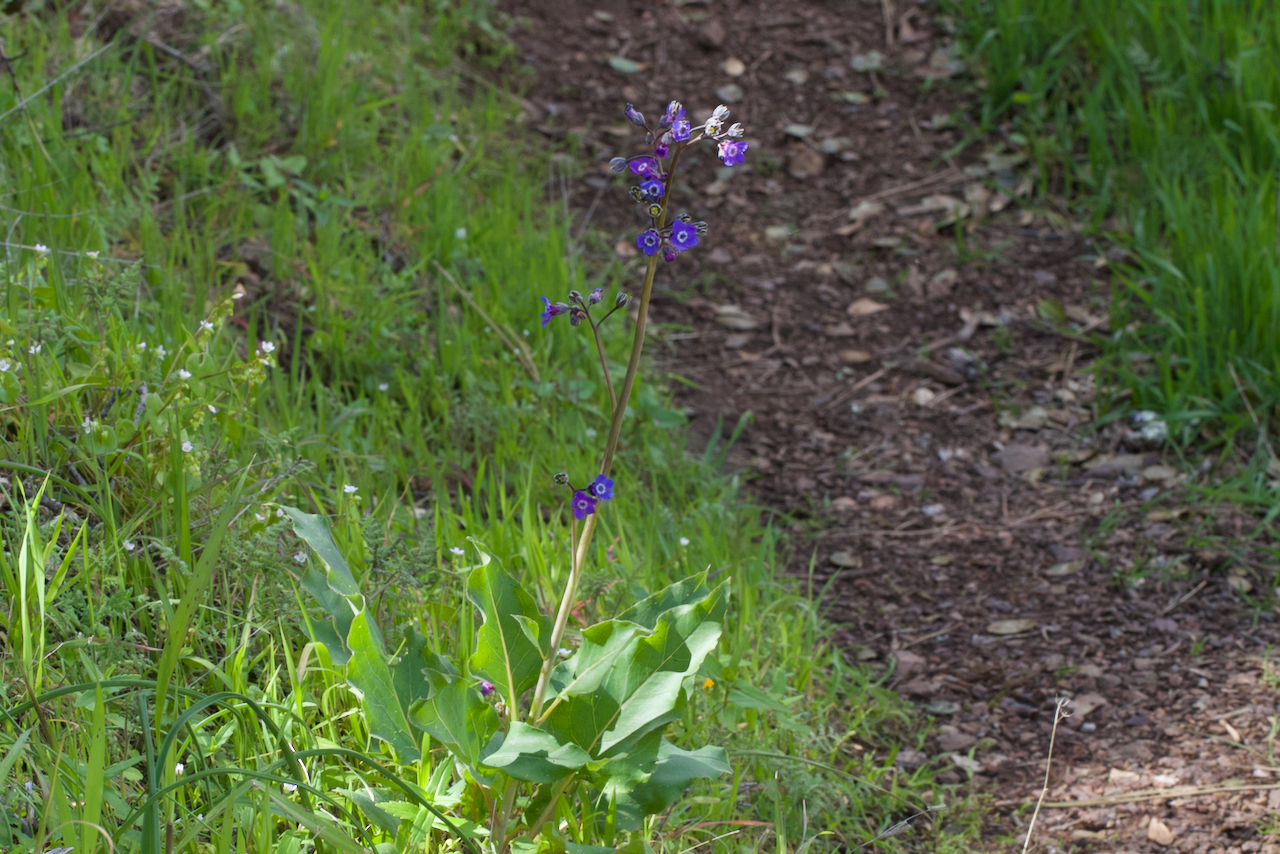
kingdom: Plantae
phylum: Tracheophyta
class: Magnoliopsida
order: Boraginales
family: Boraginaceae
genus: Adelinia
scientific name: Adelinia grande
